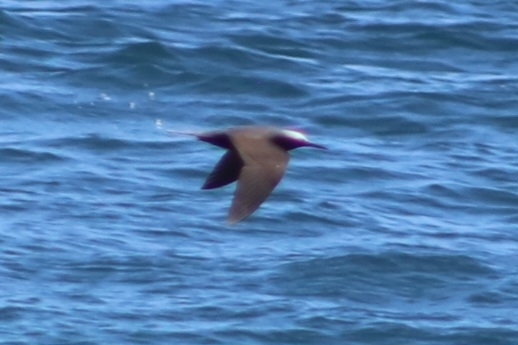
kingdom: Animalia
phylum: Chordata
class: Aves
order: Charadriiformes
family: Laridae
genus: Anous
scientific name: Anous minutus
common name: Black noddy
